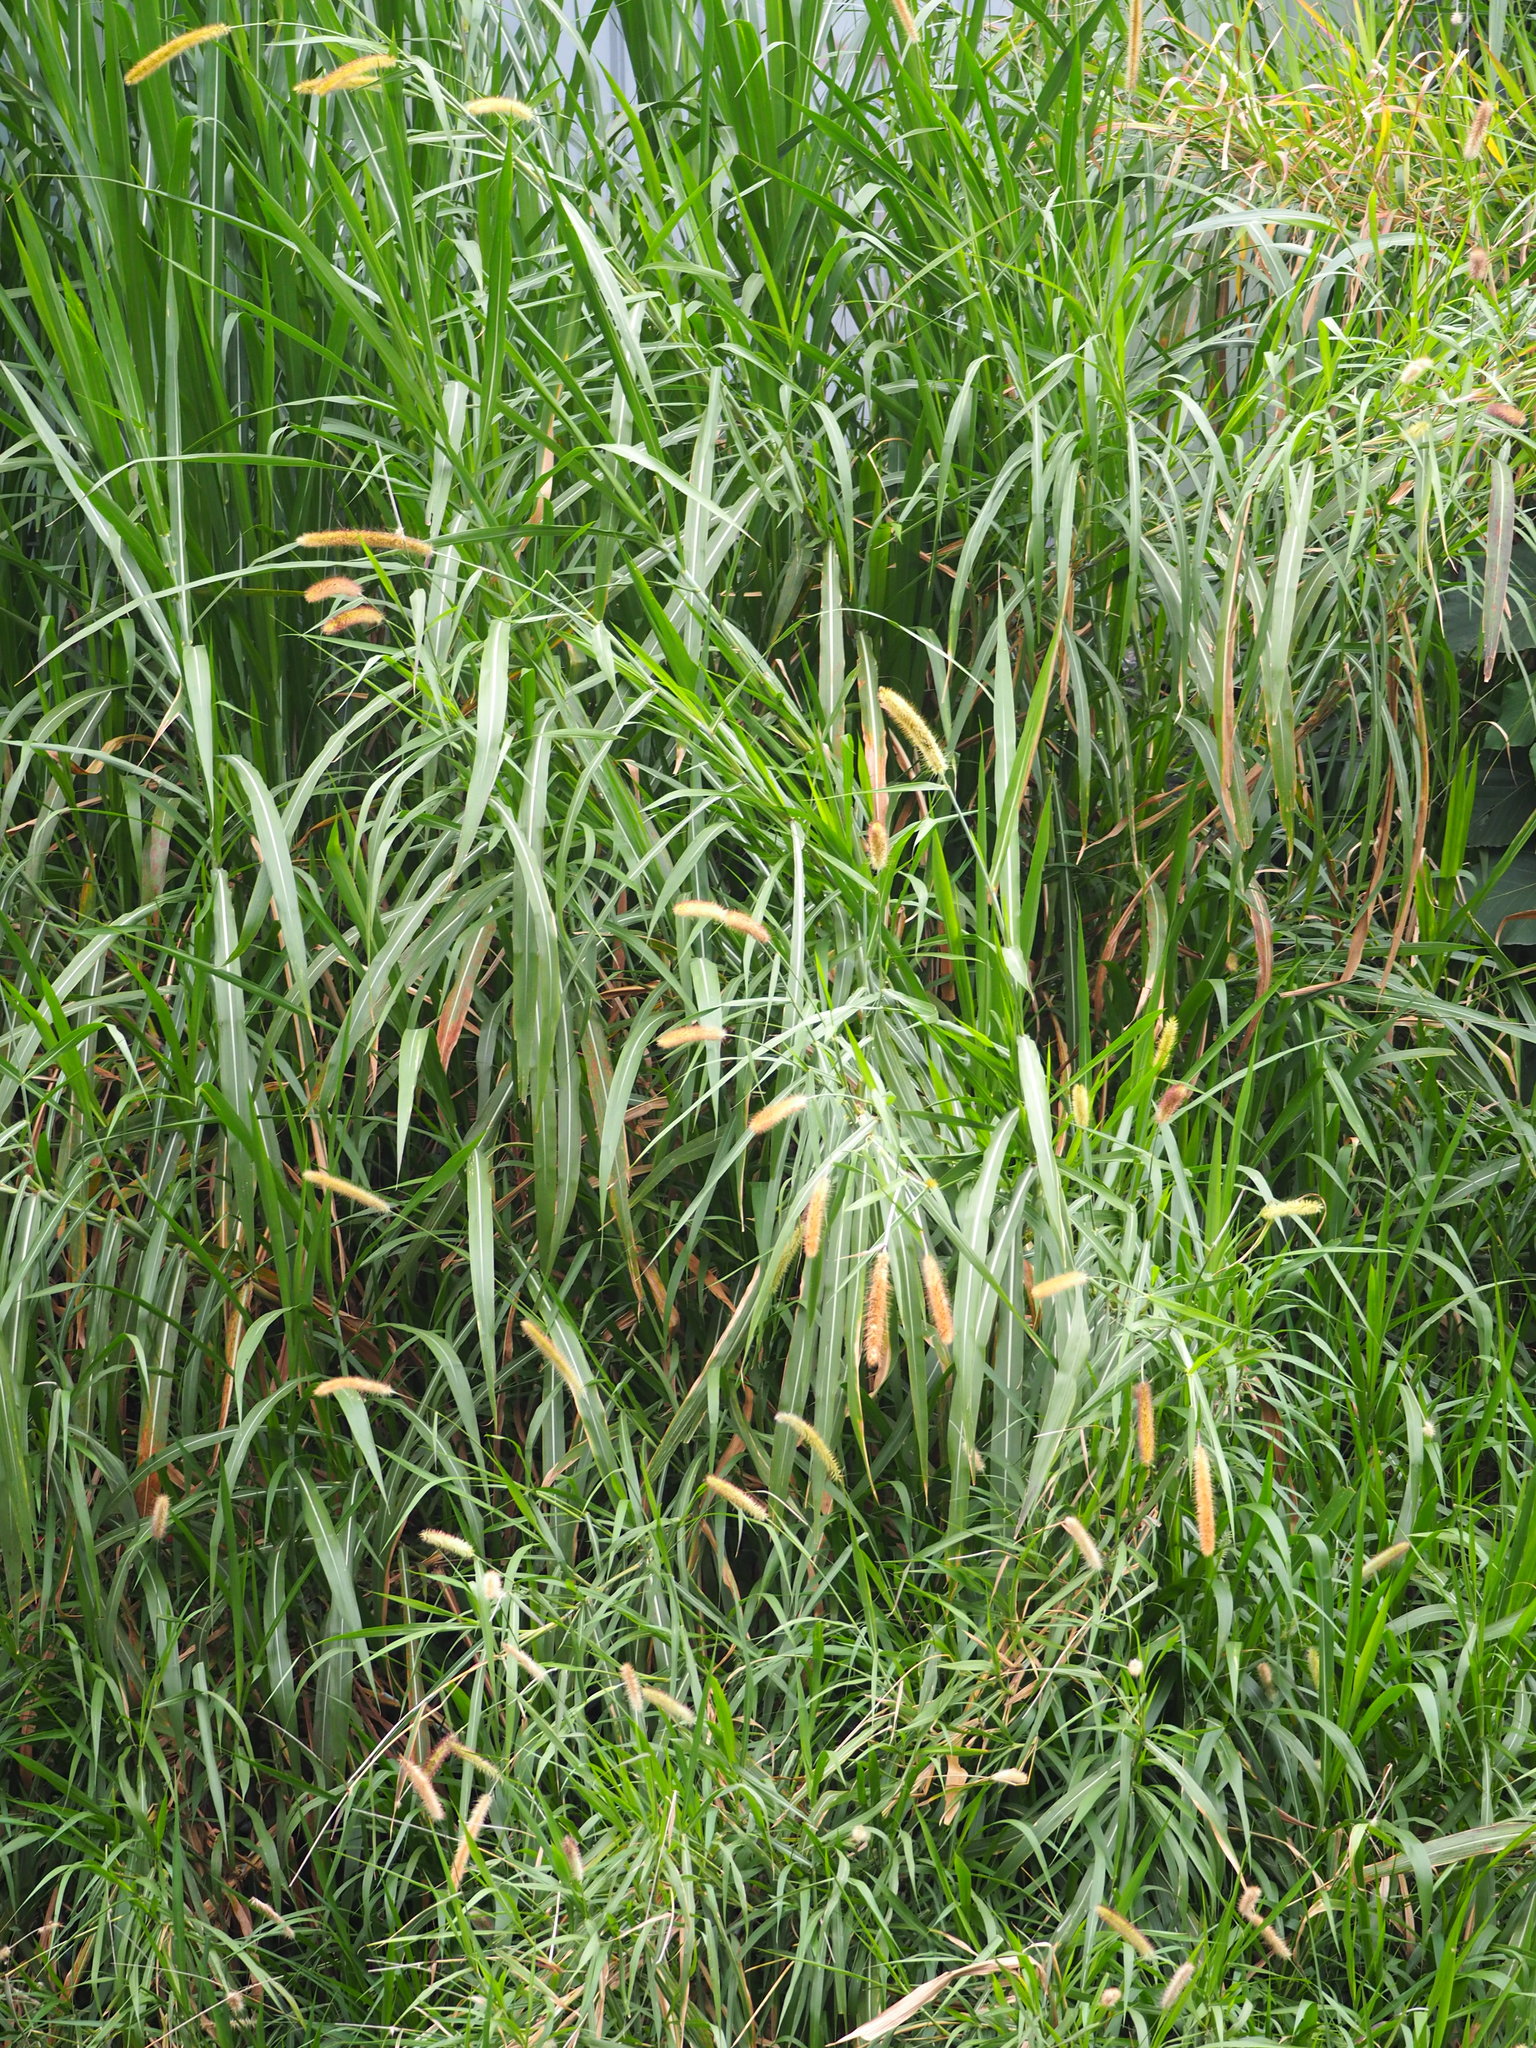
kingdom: Plantae
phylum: Tracheophyta
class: Liliopsida
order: Poales
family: Poaceae
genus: Cenchrus
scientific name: Cenchrus purpureus
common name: Elephant grass
